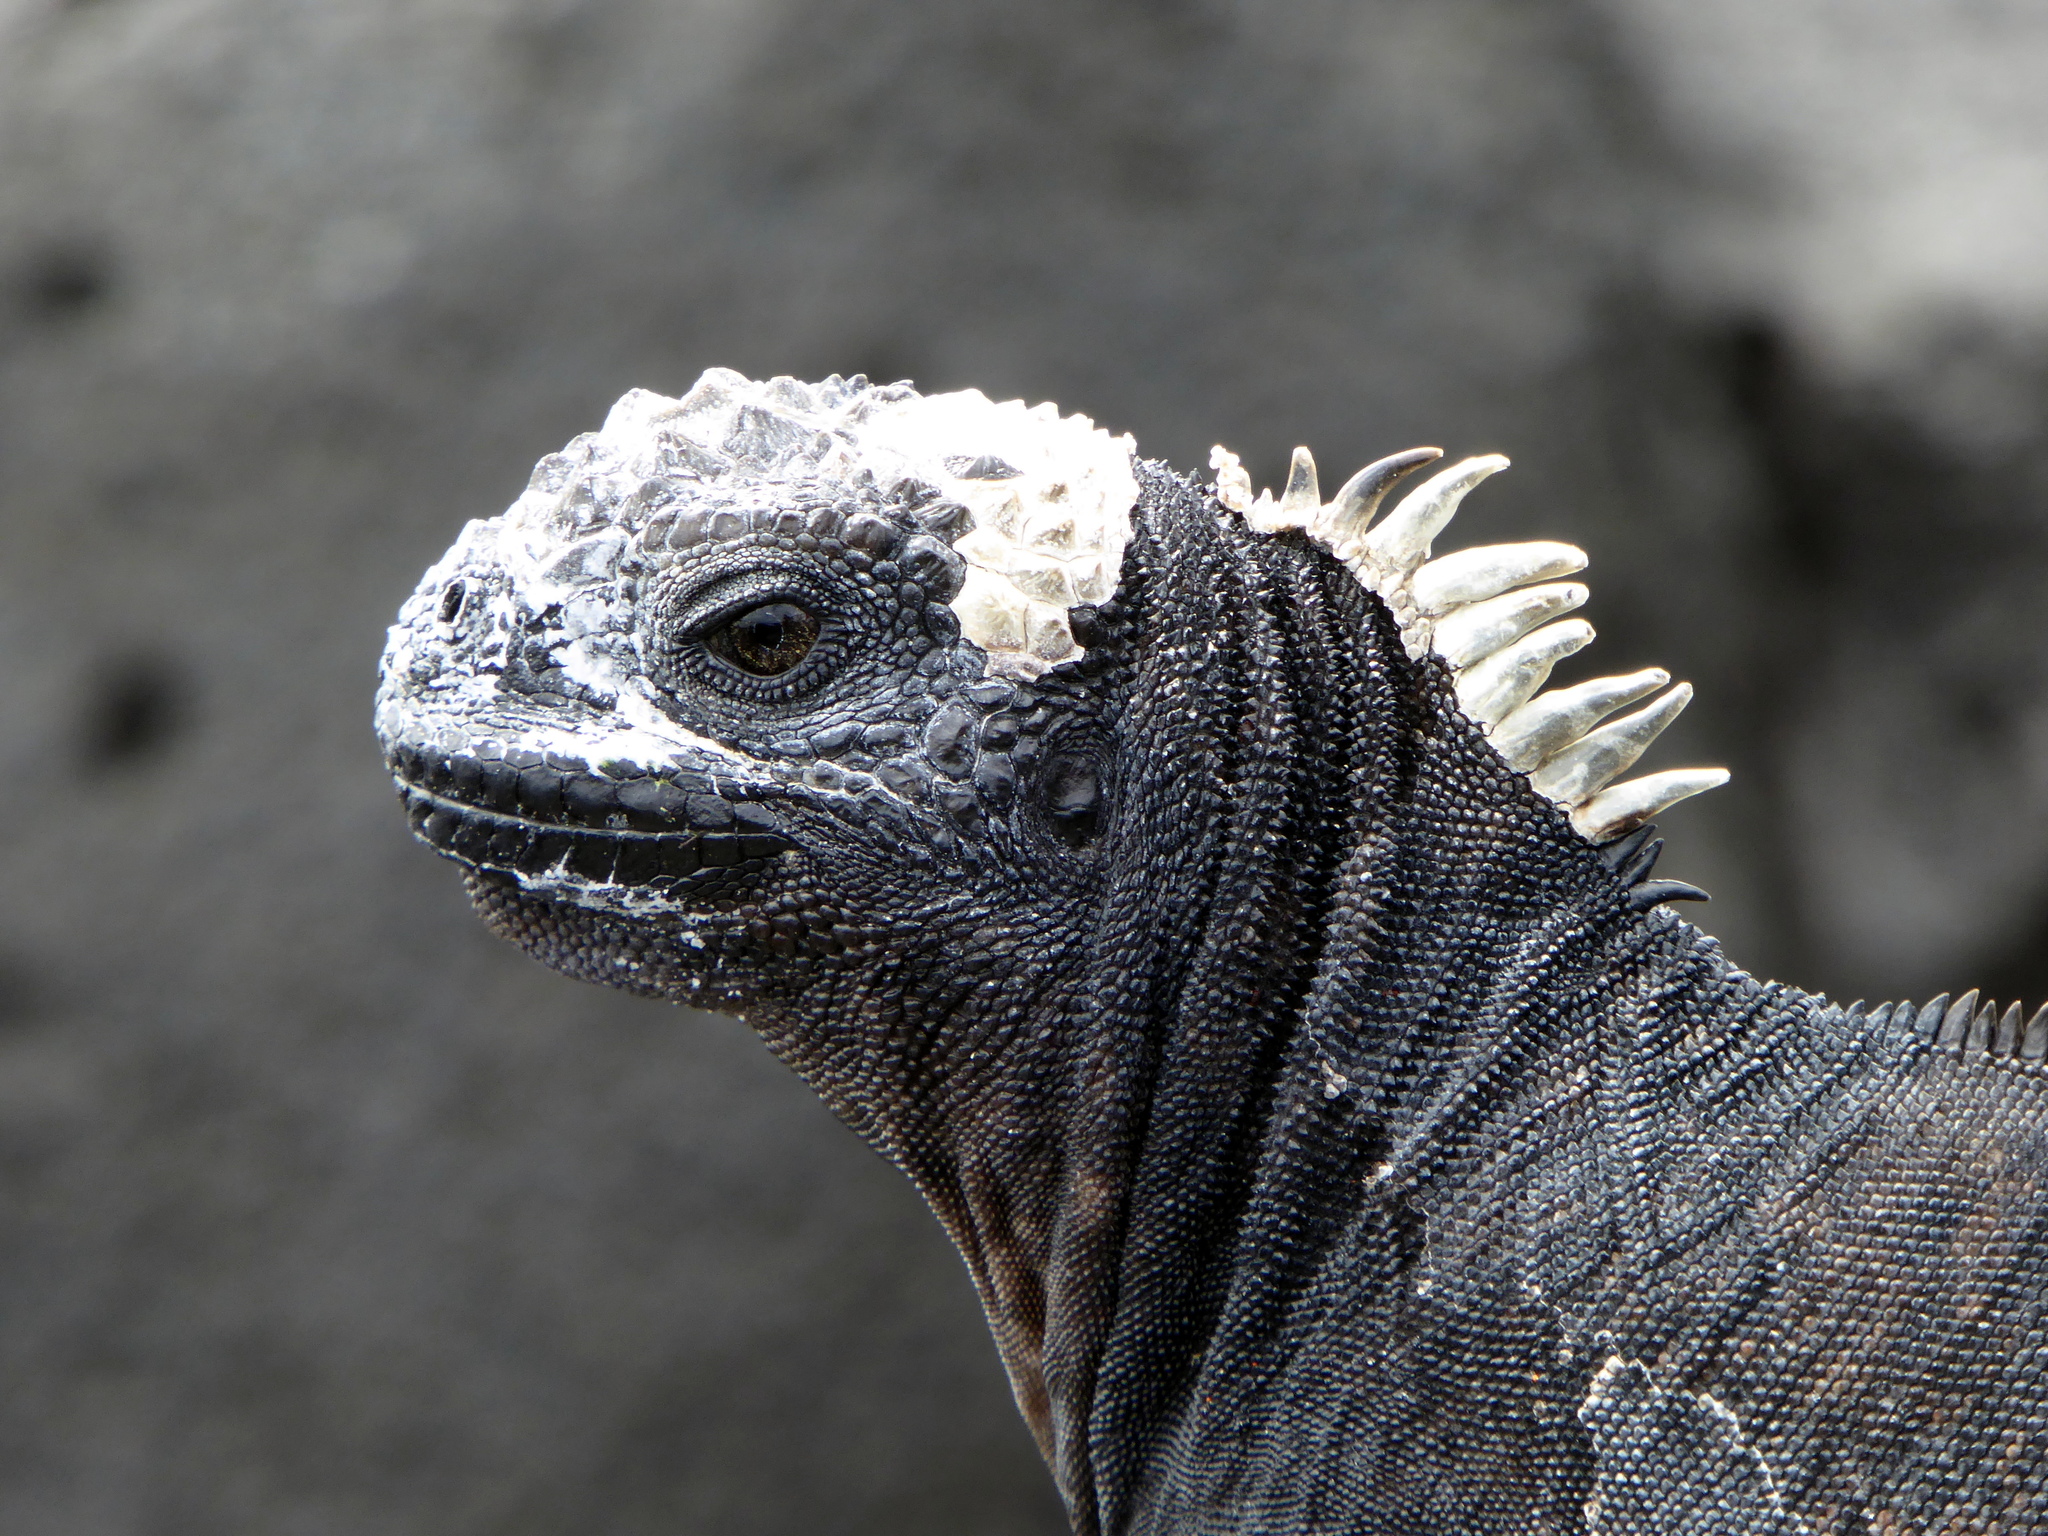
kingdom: Animalia
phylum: Chordata
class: Squamata
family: Iguanidae
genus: Amblyrhynchus
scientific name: Amblyrhynchus cristatus
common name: Marine iguana
